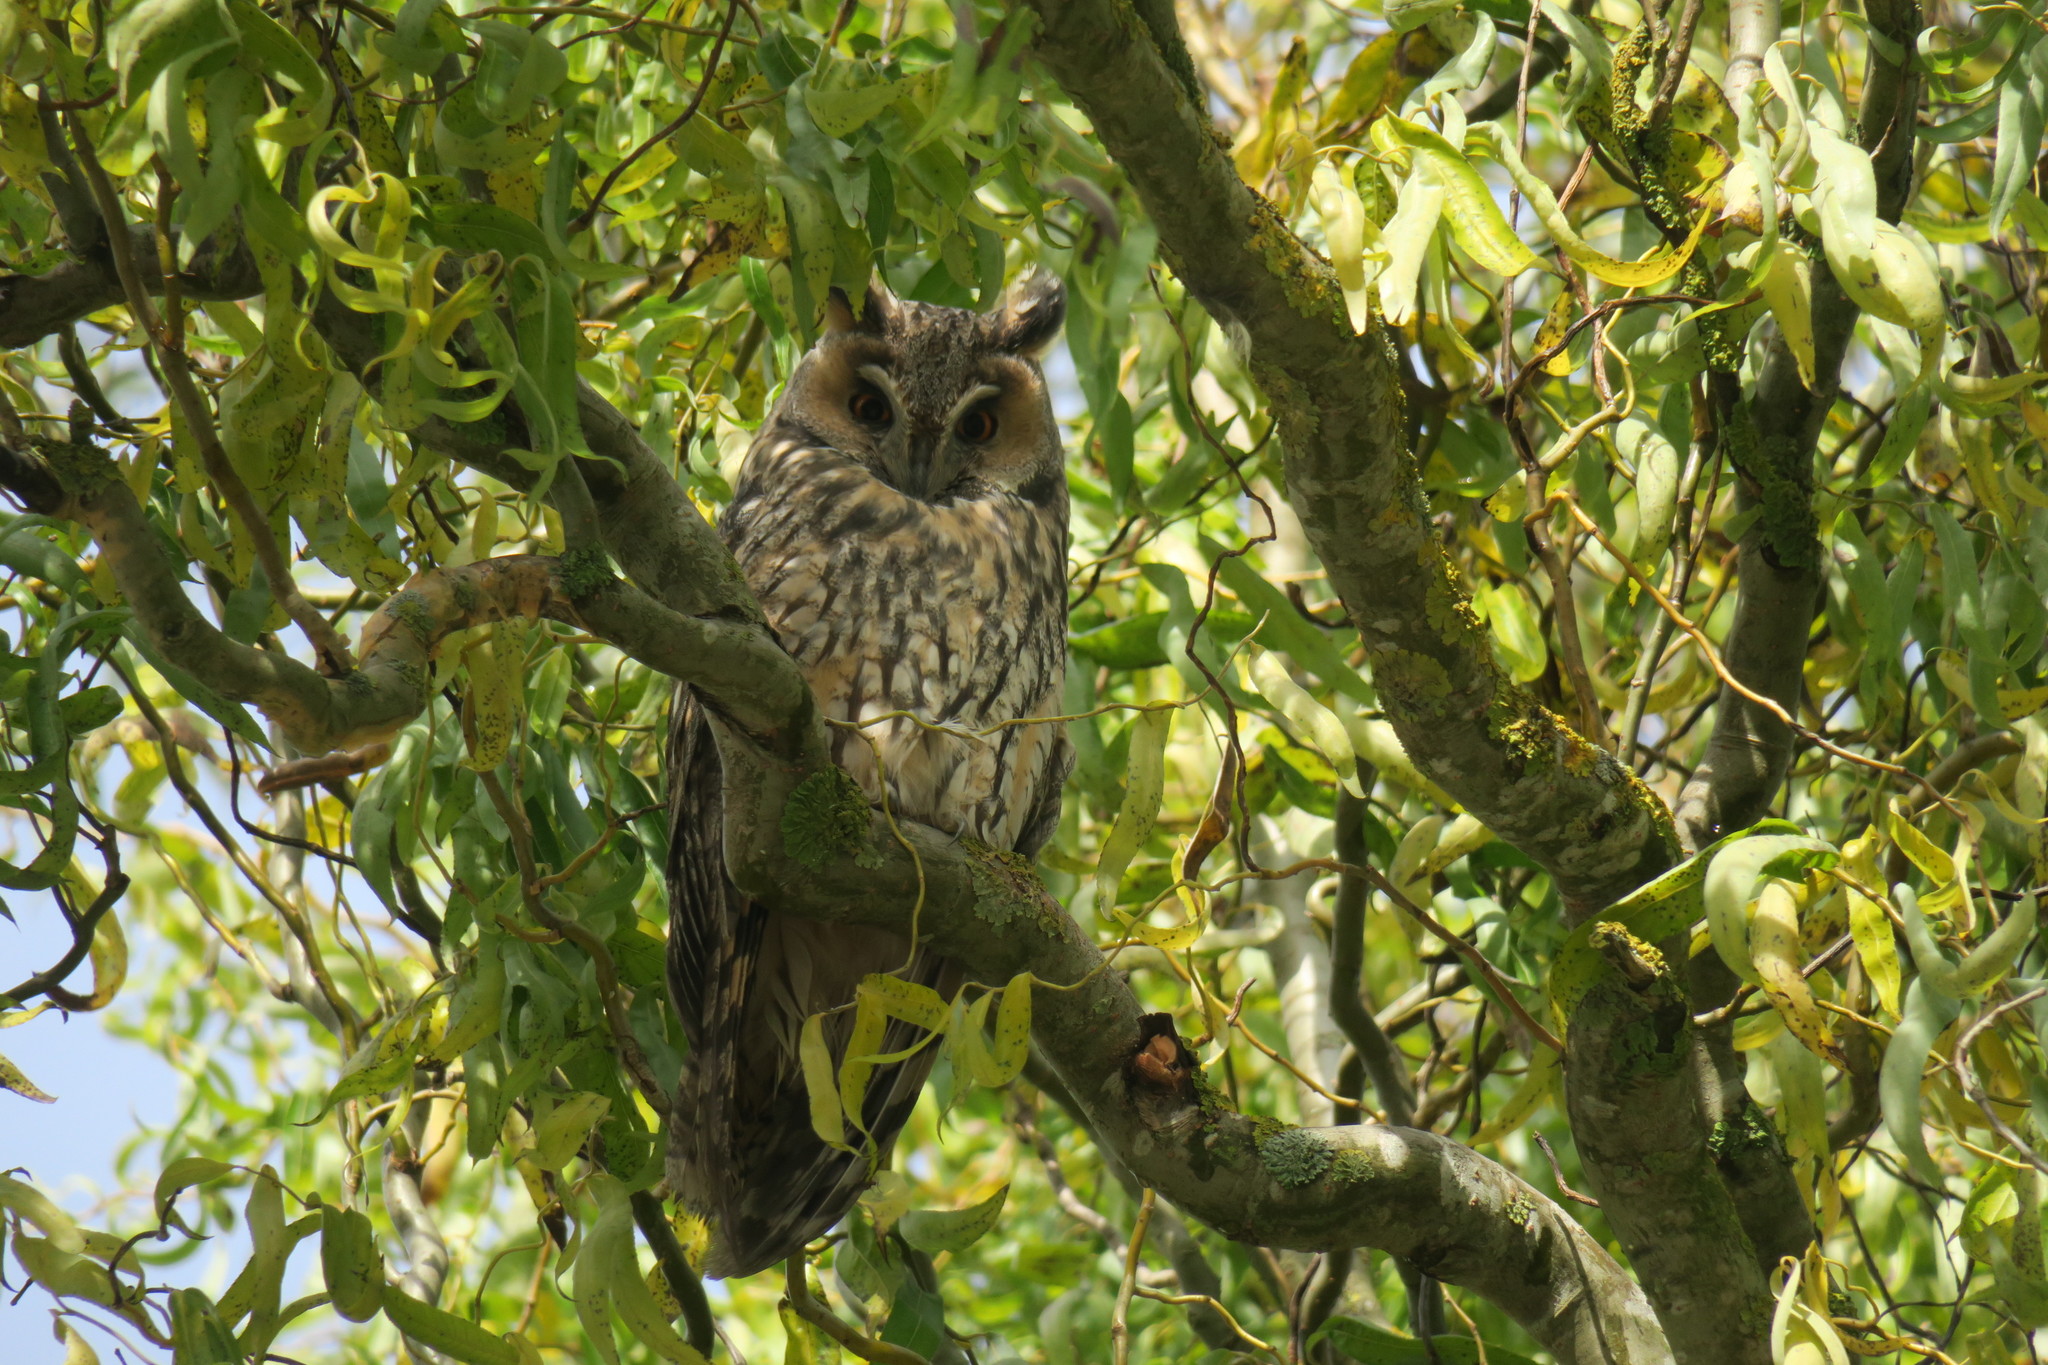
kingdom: Animalia
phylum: Chordata
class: Aves
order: Strigiformes
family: Strigidae
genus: Asio
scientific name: Asio otus
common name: Long-eared owl
